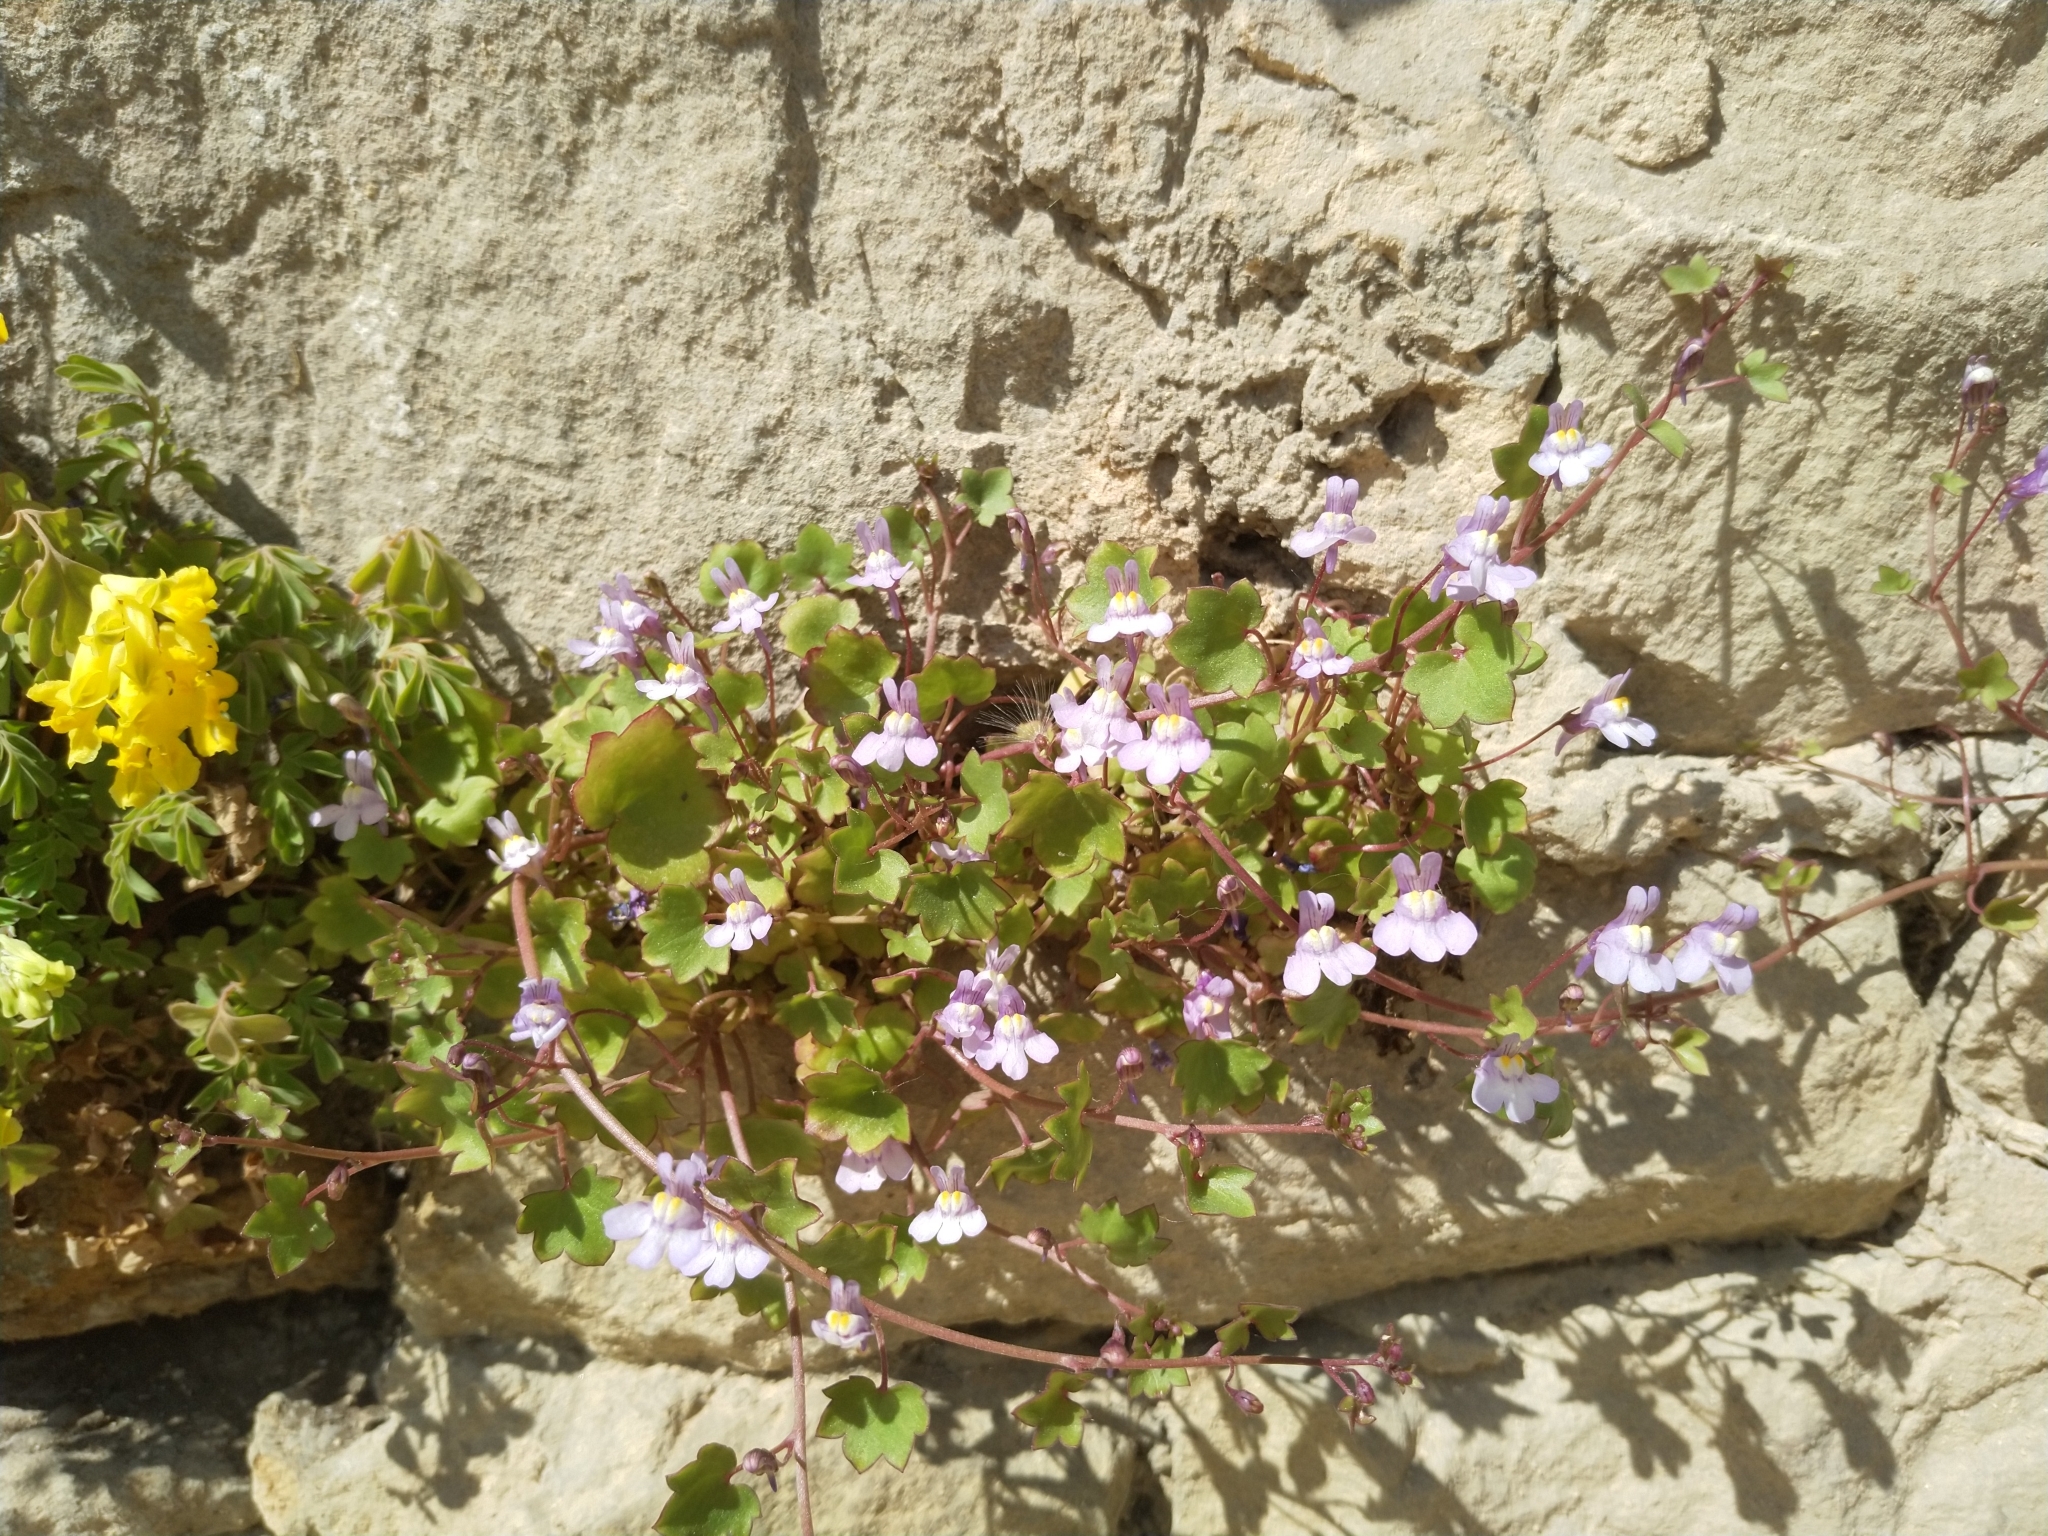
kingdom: Plantae
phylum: Tracheophyta
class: Magnoliopsida
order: Lamiales
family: Plantaginaceae
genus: Cymbalaria
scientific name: Cymbalaria muralis
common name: Ivy-leaved toadflax
